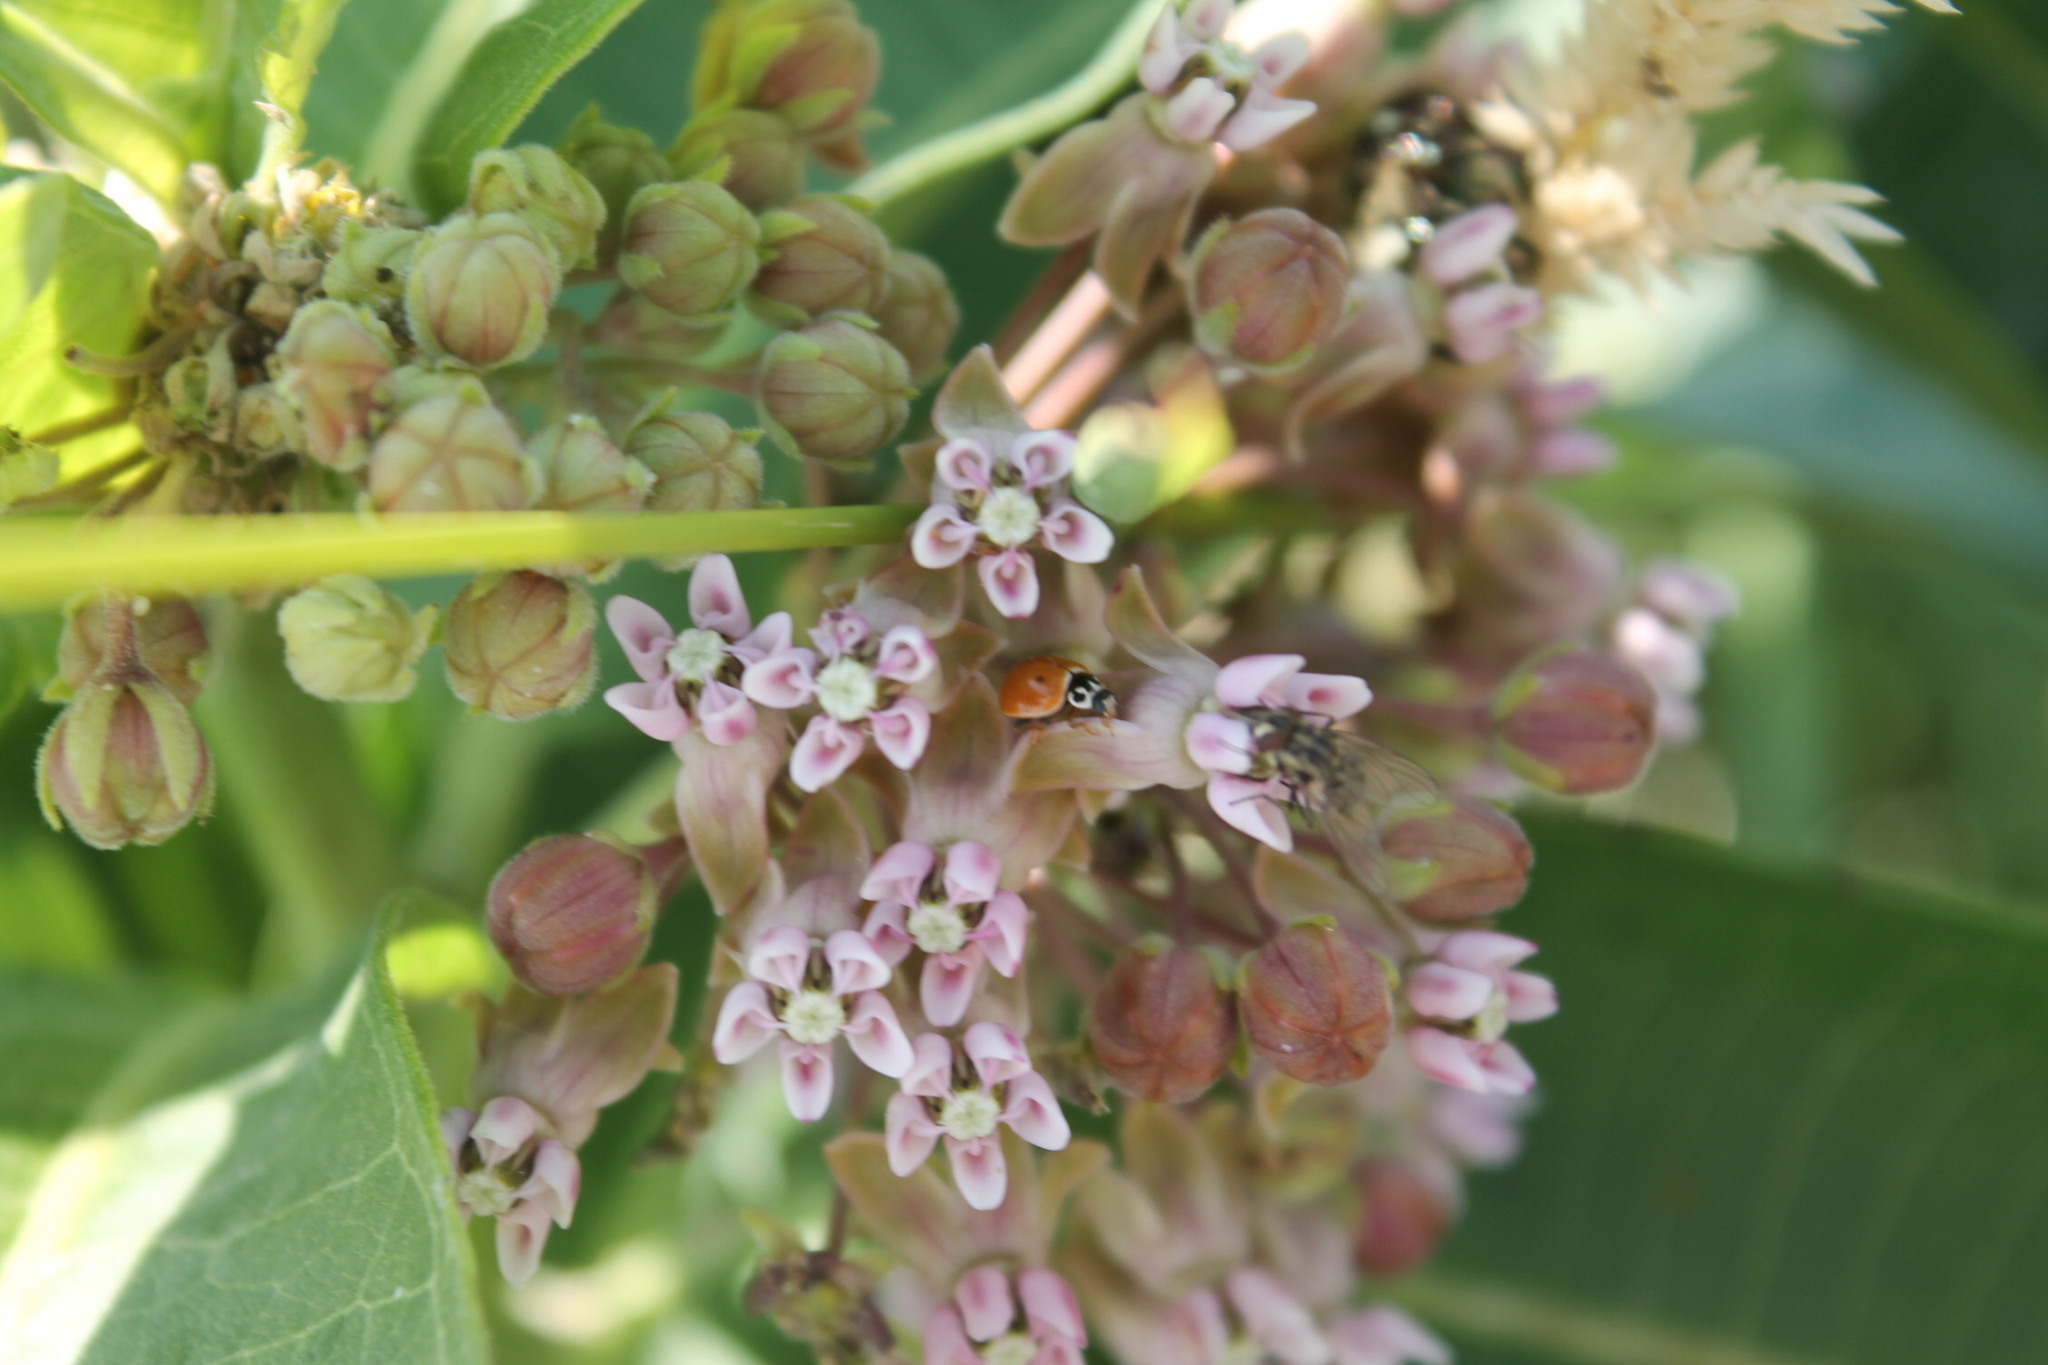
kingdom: Animalia
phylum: Arthropoda
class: Insecta
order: Coleoptera
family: Coccinellidae
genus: Cycloneda
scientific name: Cycloneda munda
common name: Polished lady beetle
